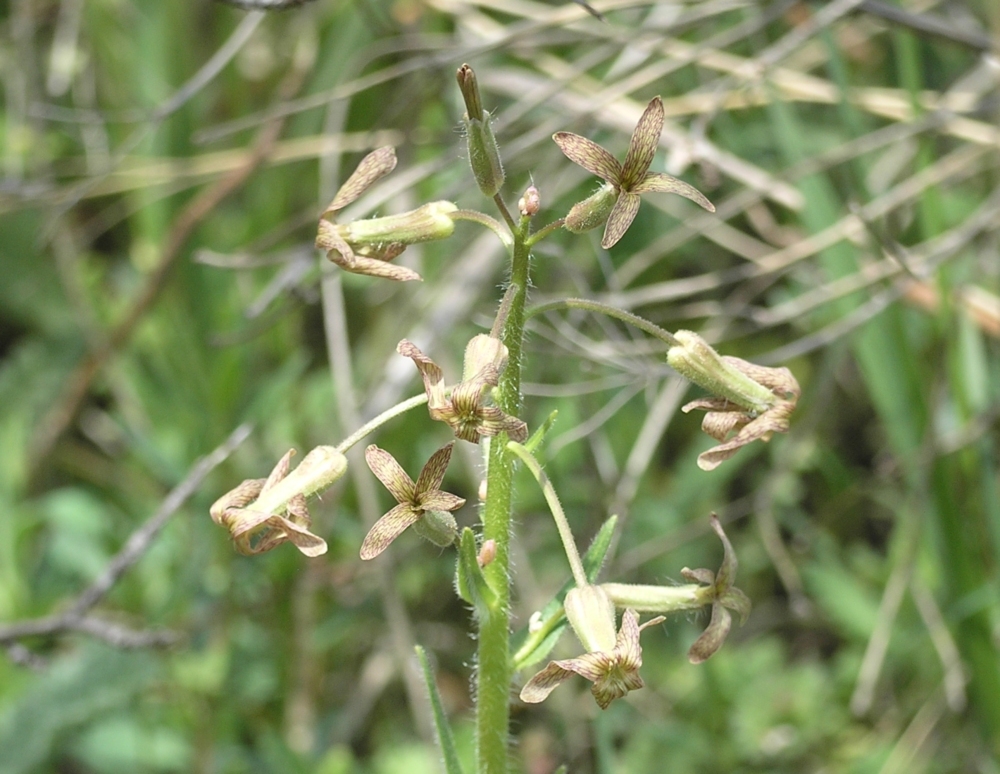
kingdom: Plantae
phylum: Tracheophyta
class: Magnoliopsida
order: Brassicales
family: Brassicaceae
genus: Hesperis
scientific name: Hesperis tristis
